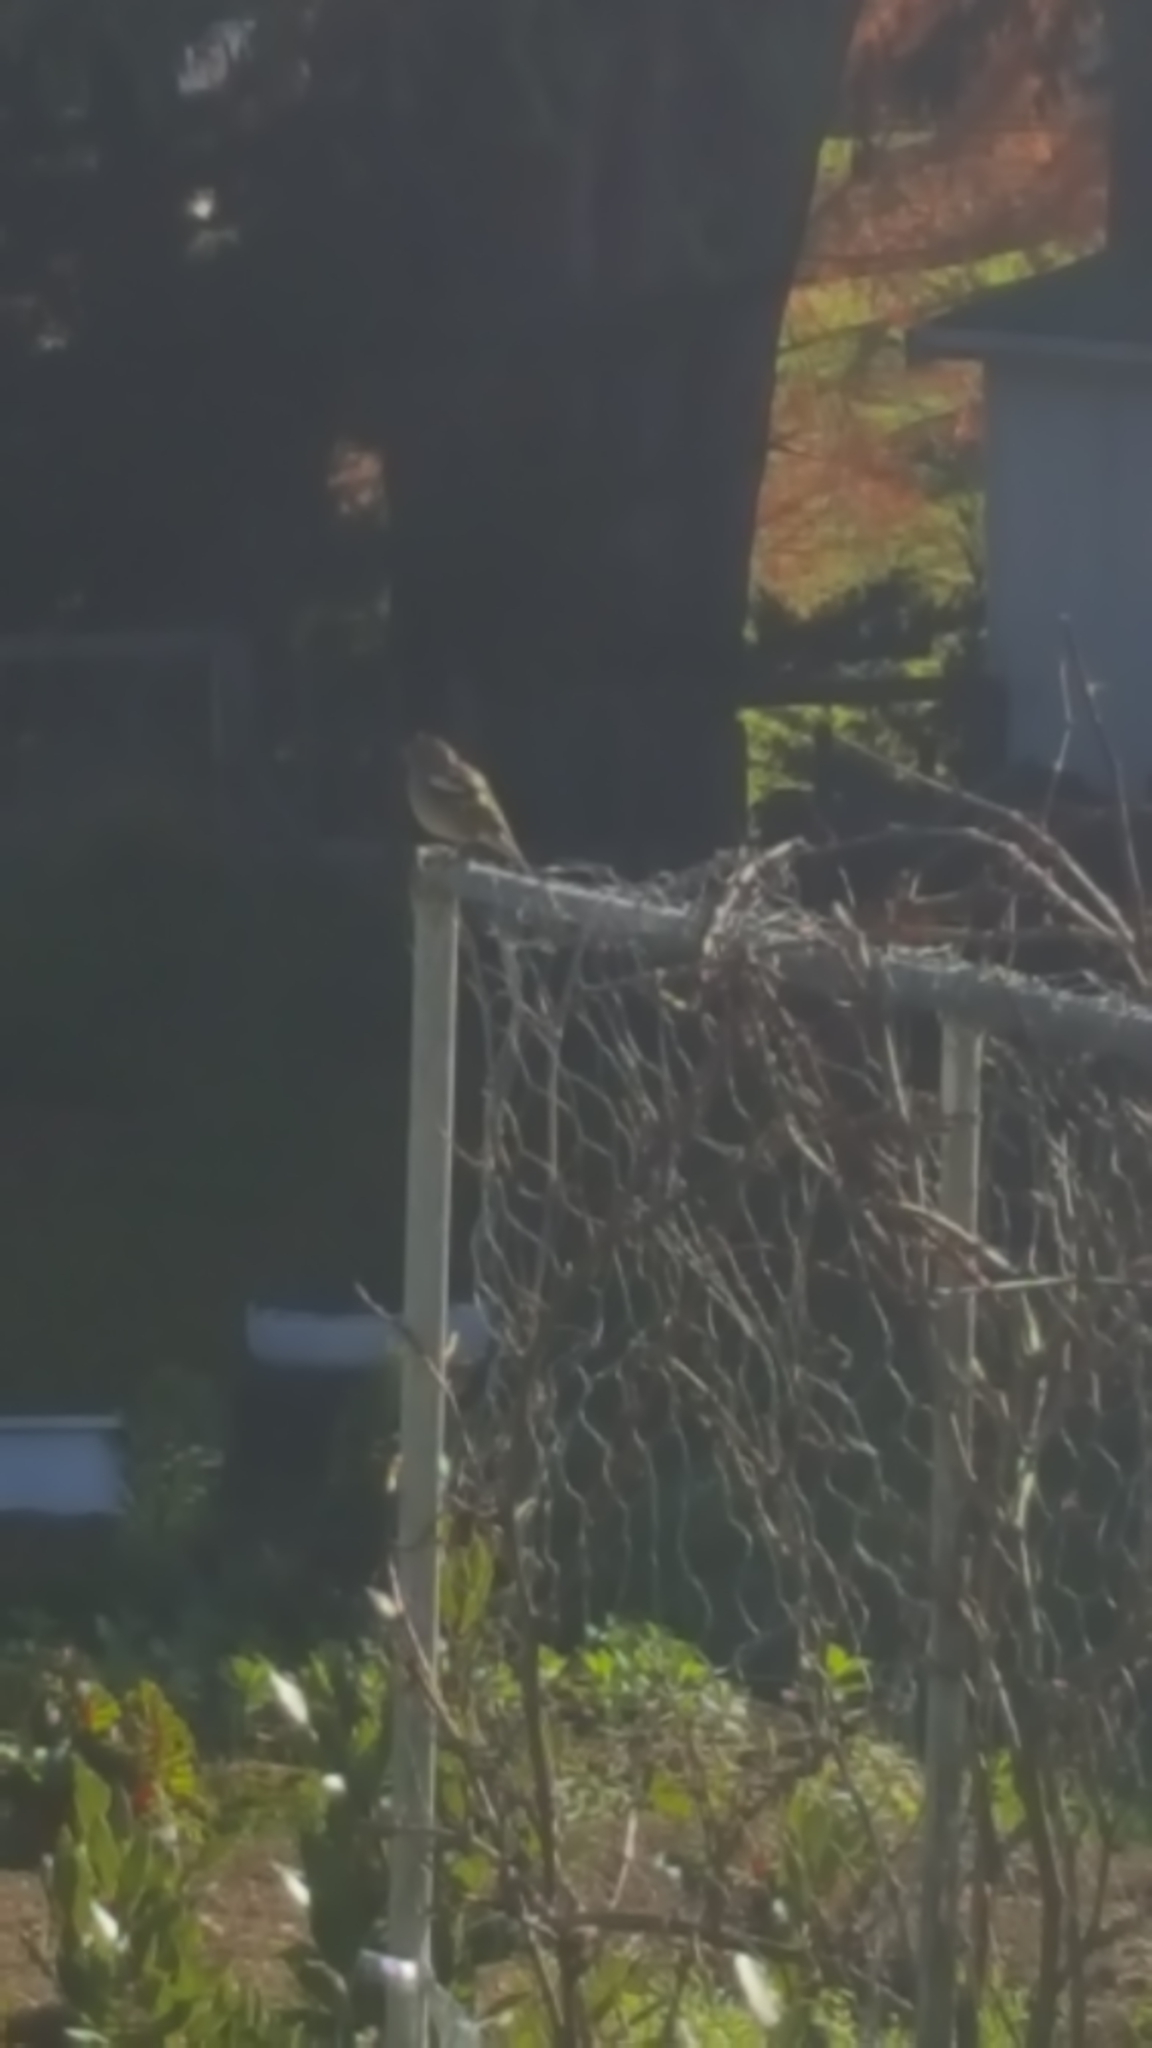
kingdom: Animalia
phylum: Chordata
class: Aves
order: Passeriformes
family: Fringillidae
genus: Fringilla
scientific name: Fringilla coelebs
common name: Common chaffinch
